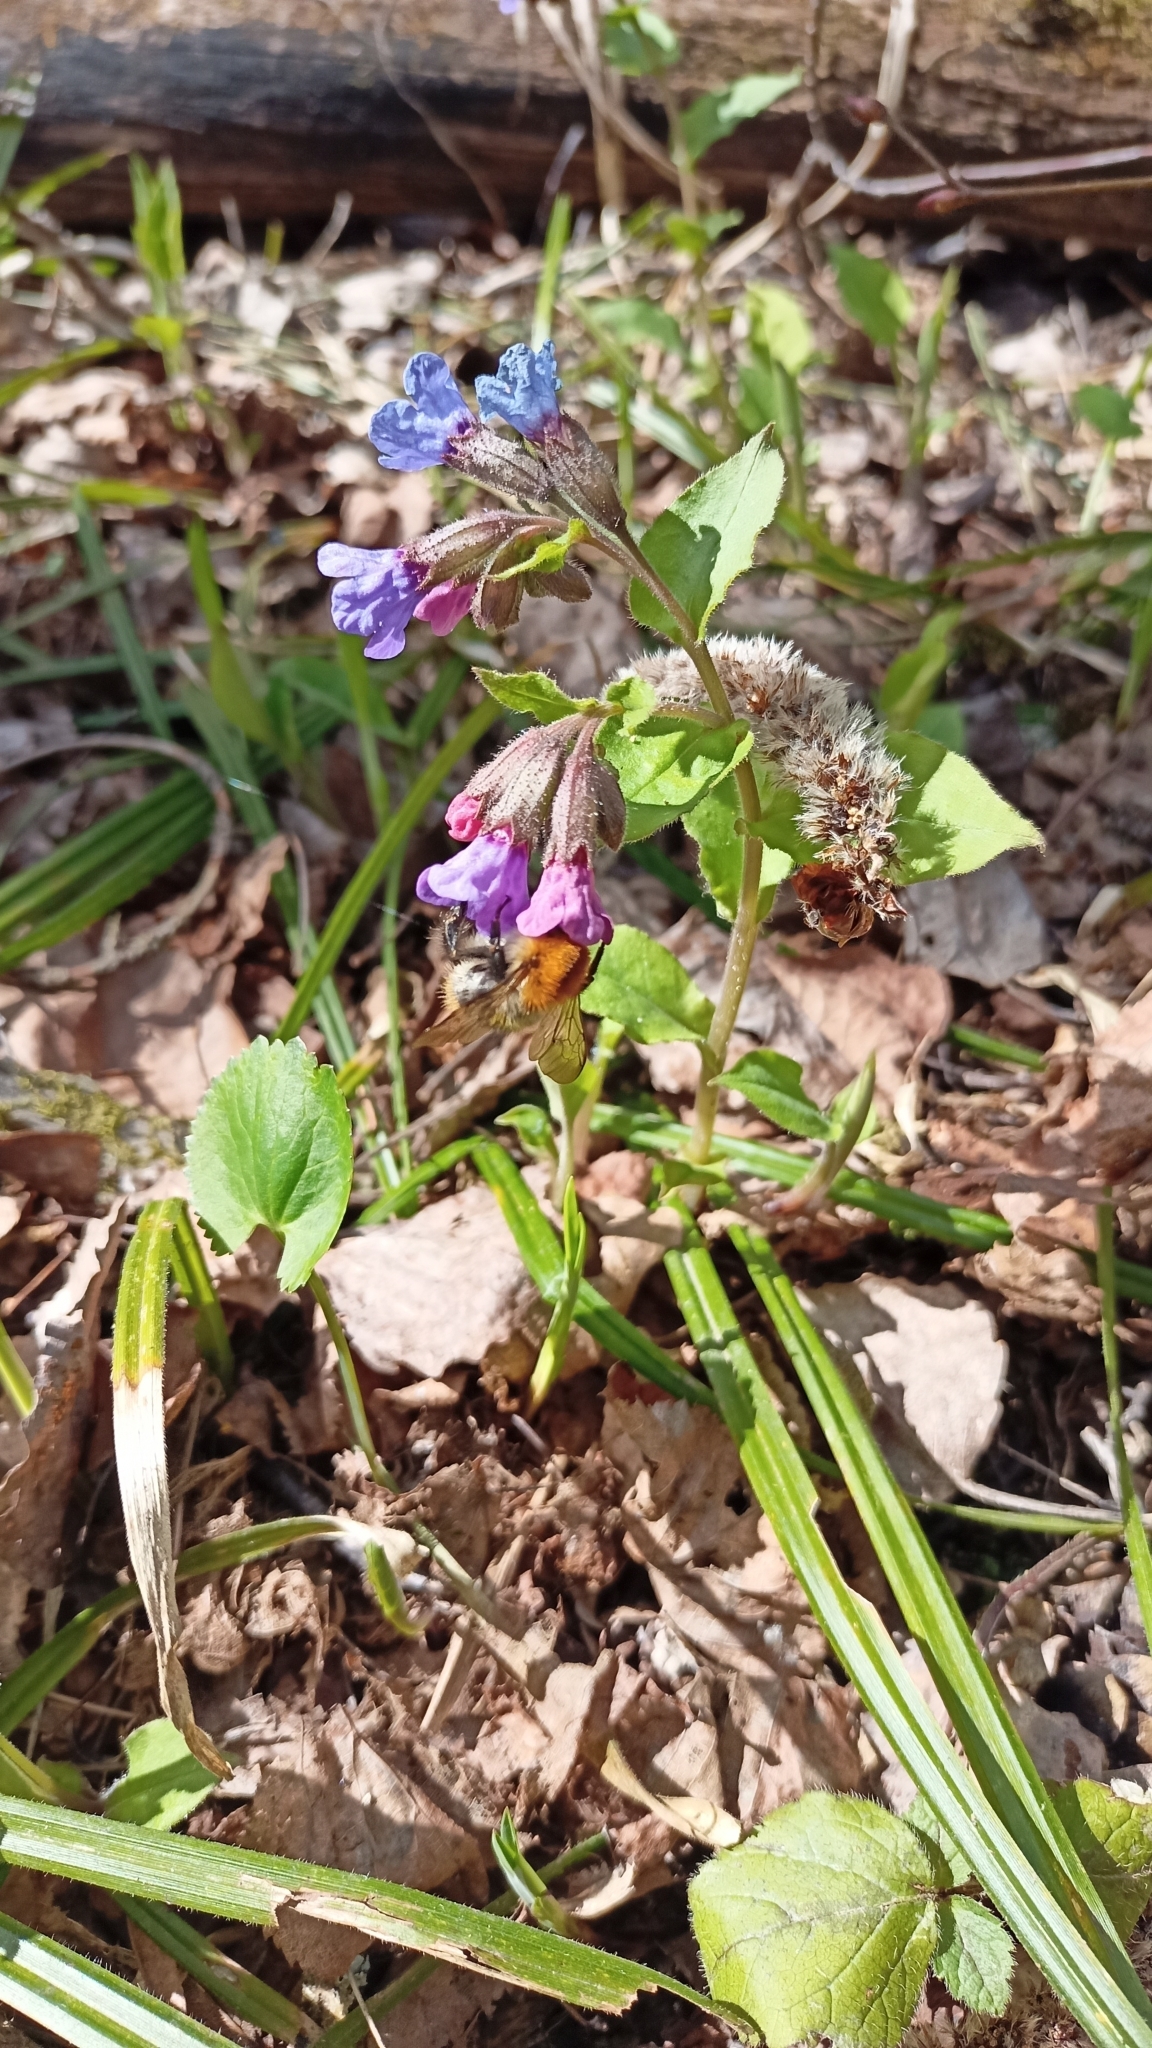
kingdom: Plantae
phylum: Tracheophyta
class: Magnoliopsida
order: Boraginales
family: Boraginaceae
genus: Pulmonaria
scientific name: Pulmonaria obscura
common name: Suffolk lungwort
